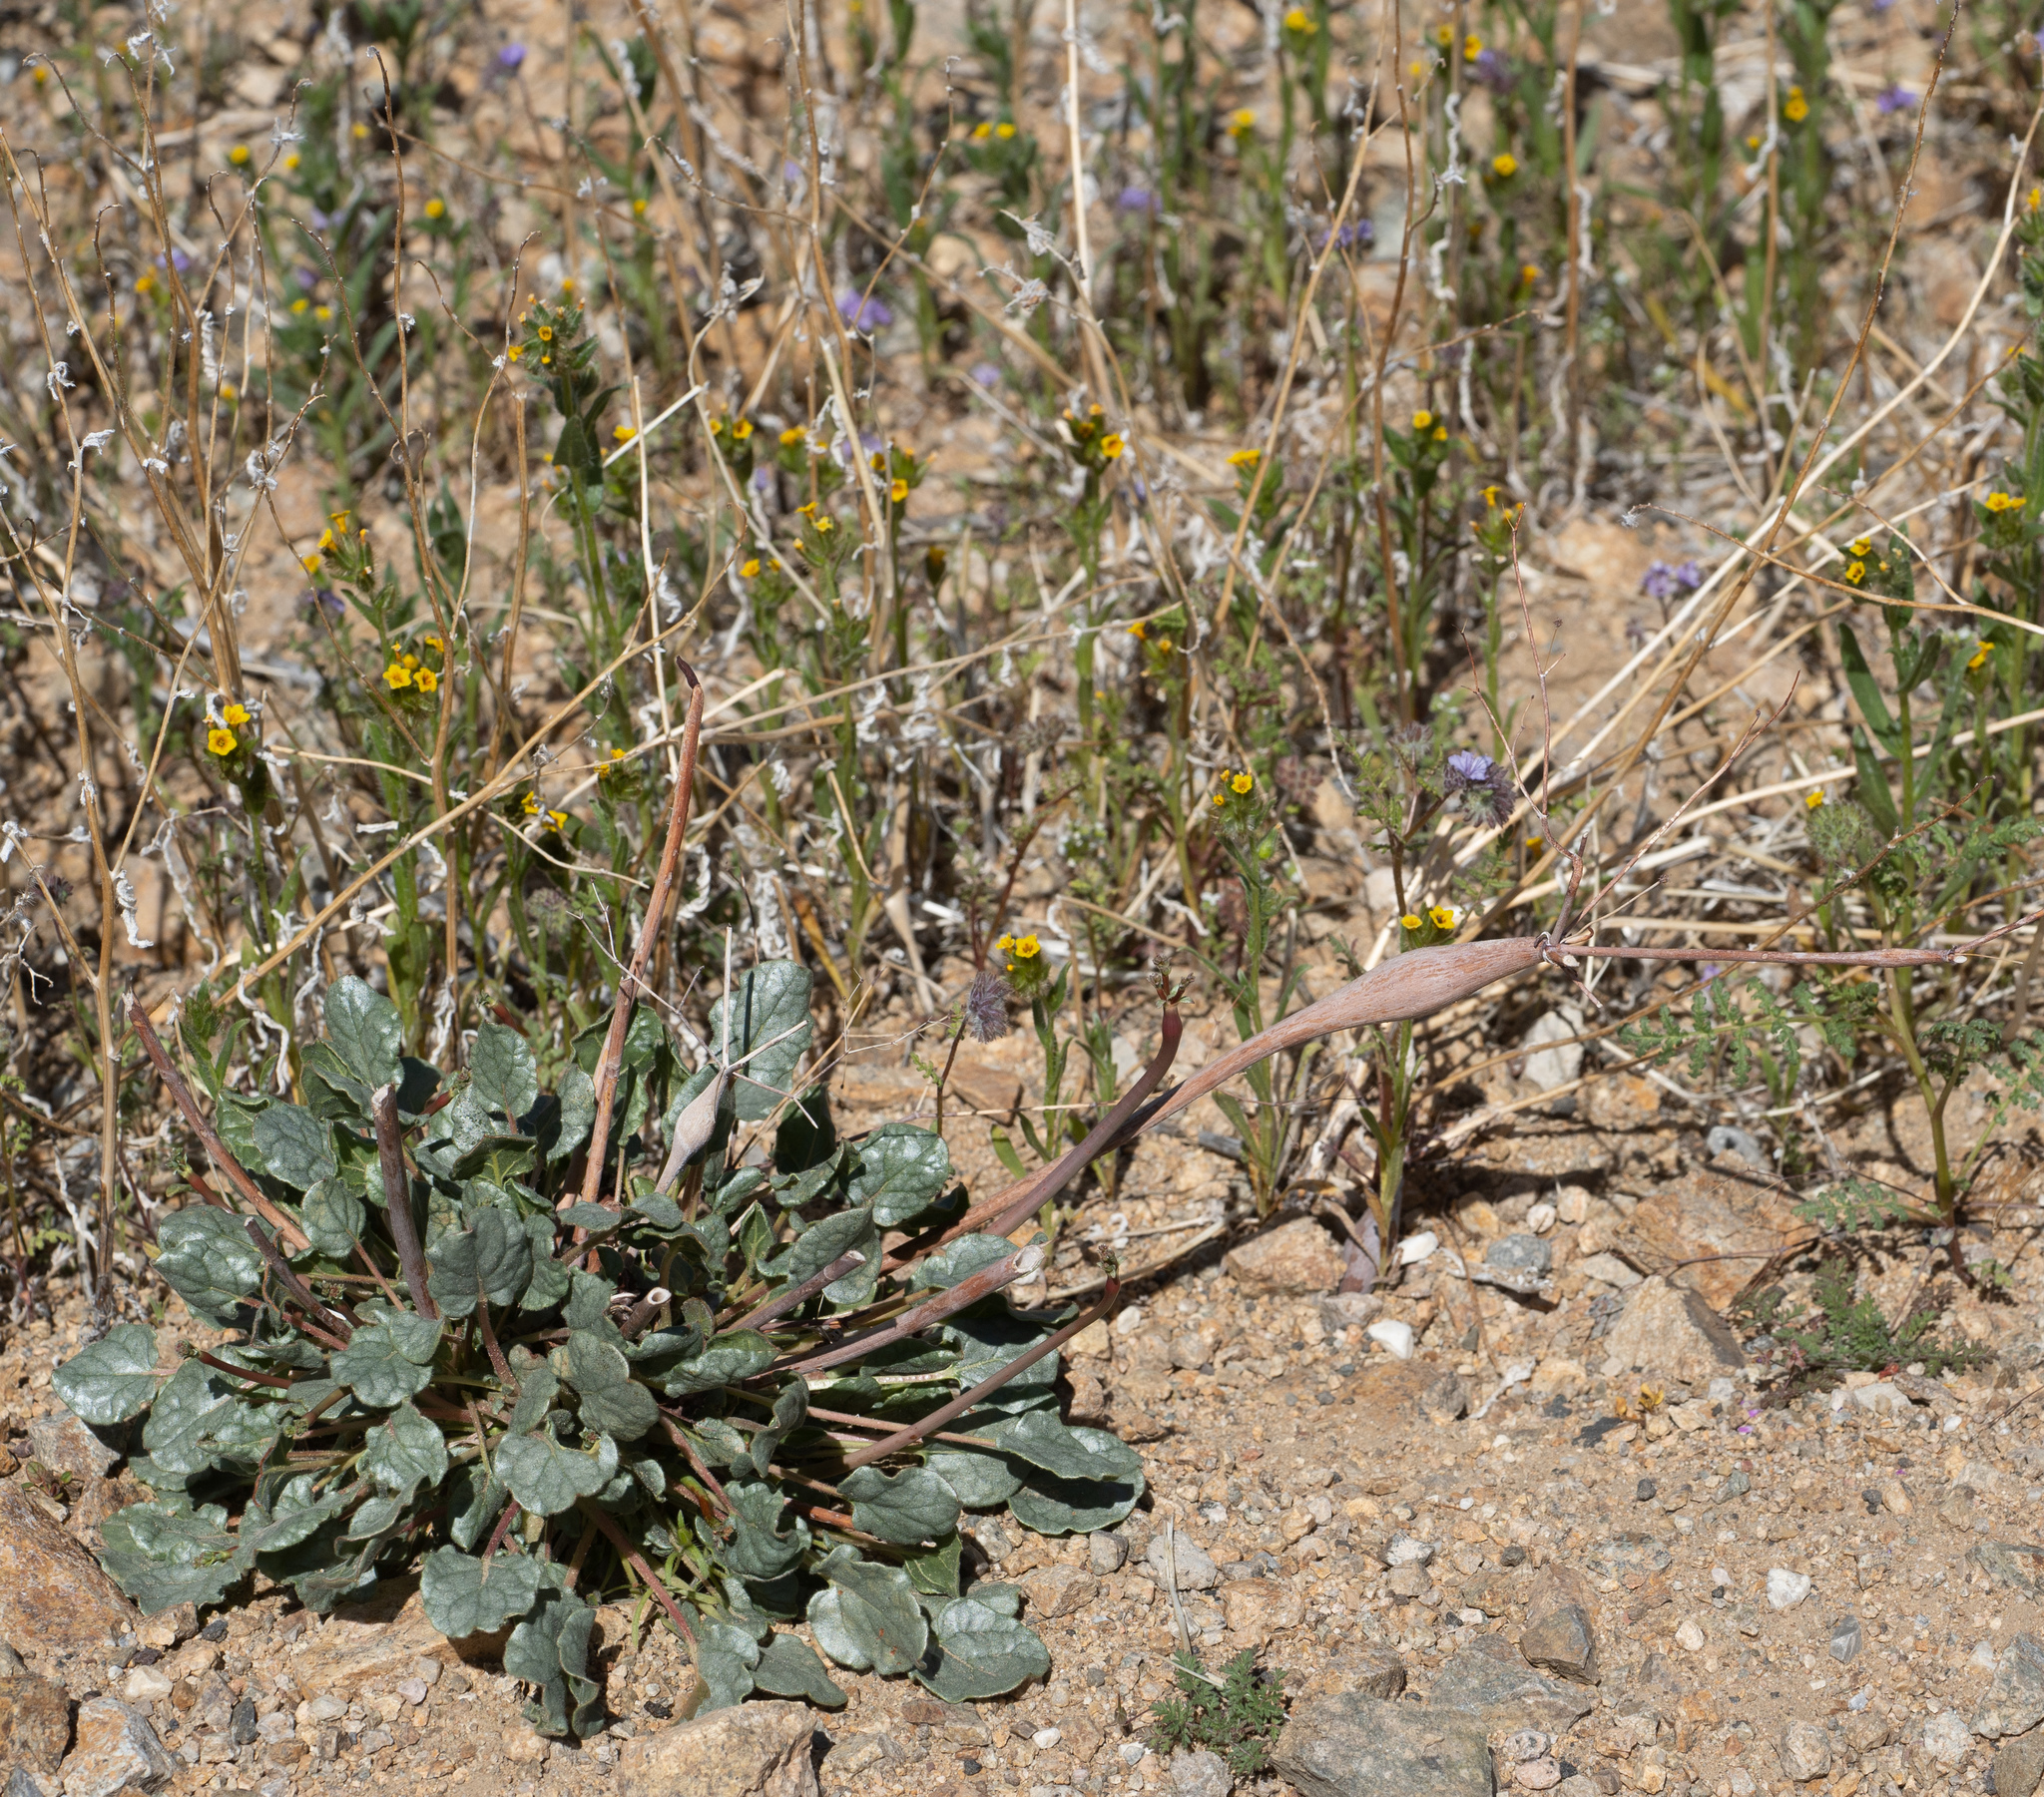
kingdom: Plantae
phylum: Tracheophyta
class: Magnoliopsida
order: Caryophyllales
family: Polygonaceae
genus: Eriogonum
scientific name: Eriogonum inflatum
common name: Desert trumpet
